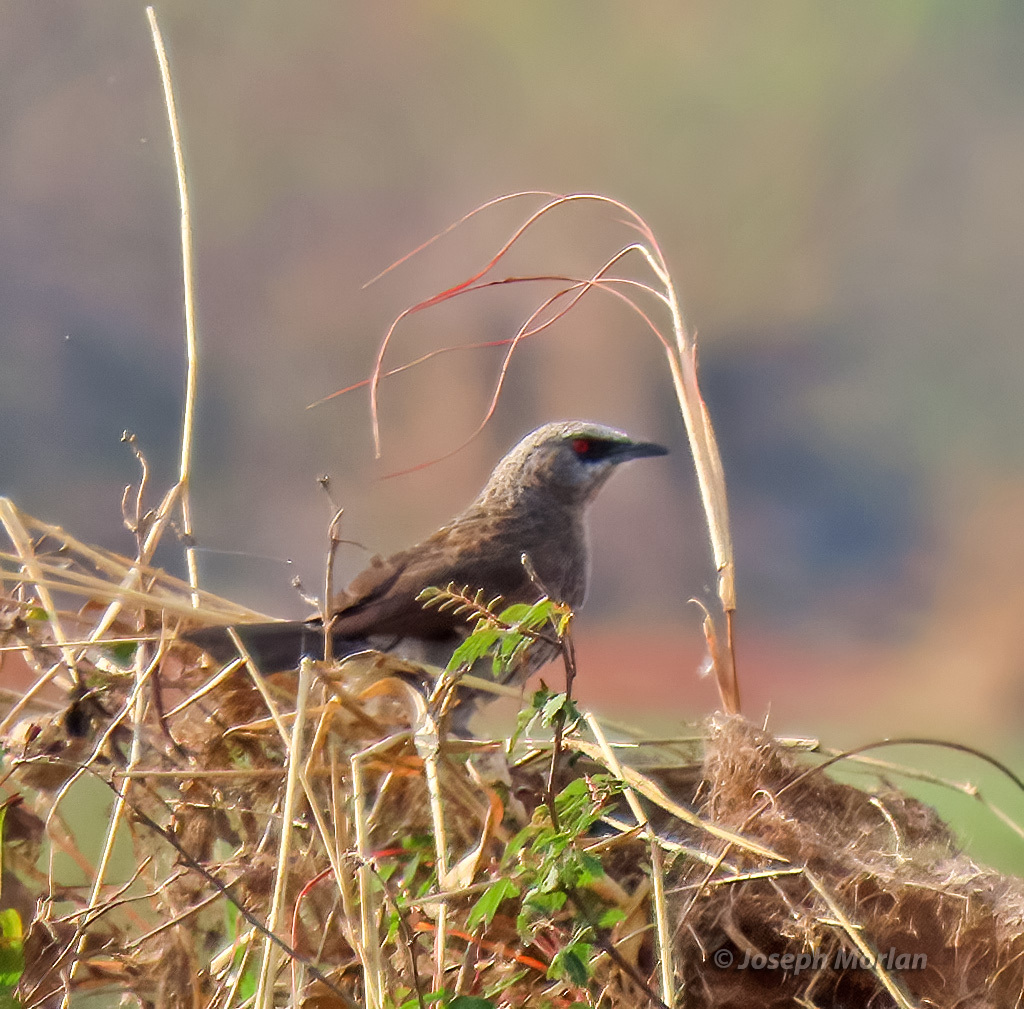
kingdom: Animalia
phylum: Chordata
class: Aves
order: Passeriformes
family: Leiothrichidae
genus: Turdoides
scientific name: Turdoides hartlaubii
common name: Hartlaub's babbler
